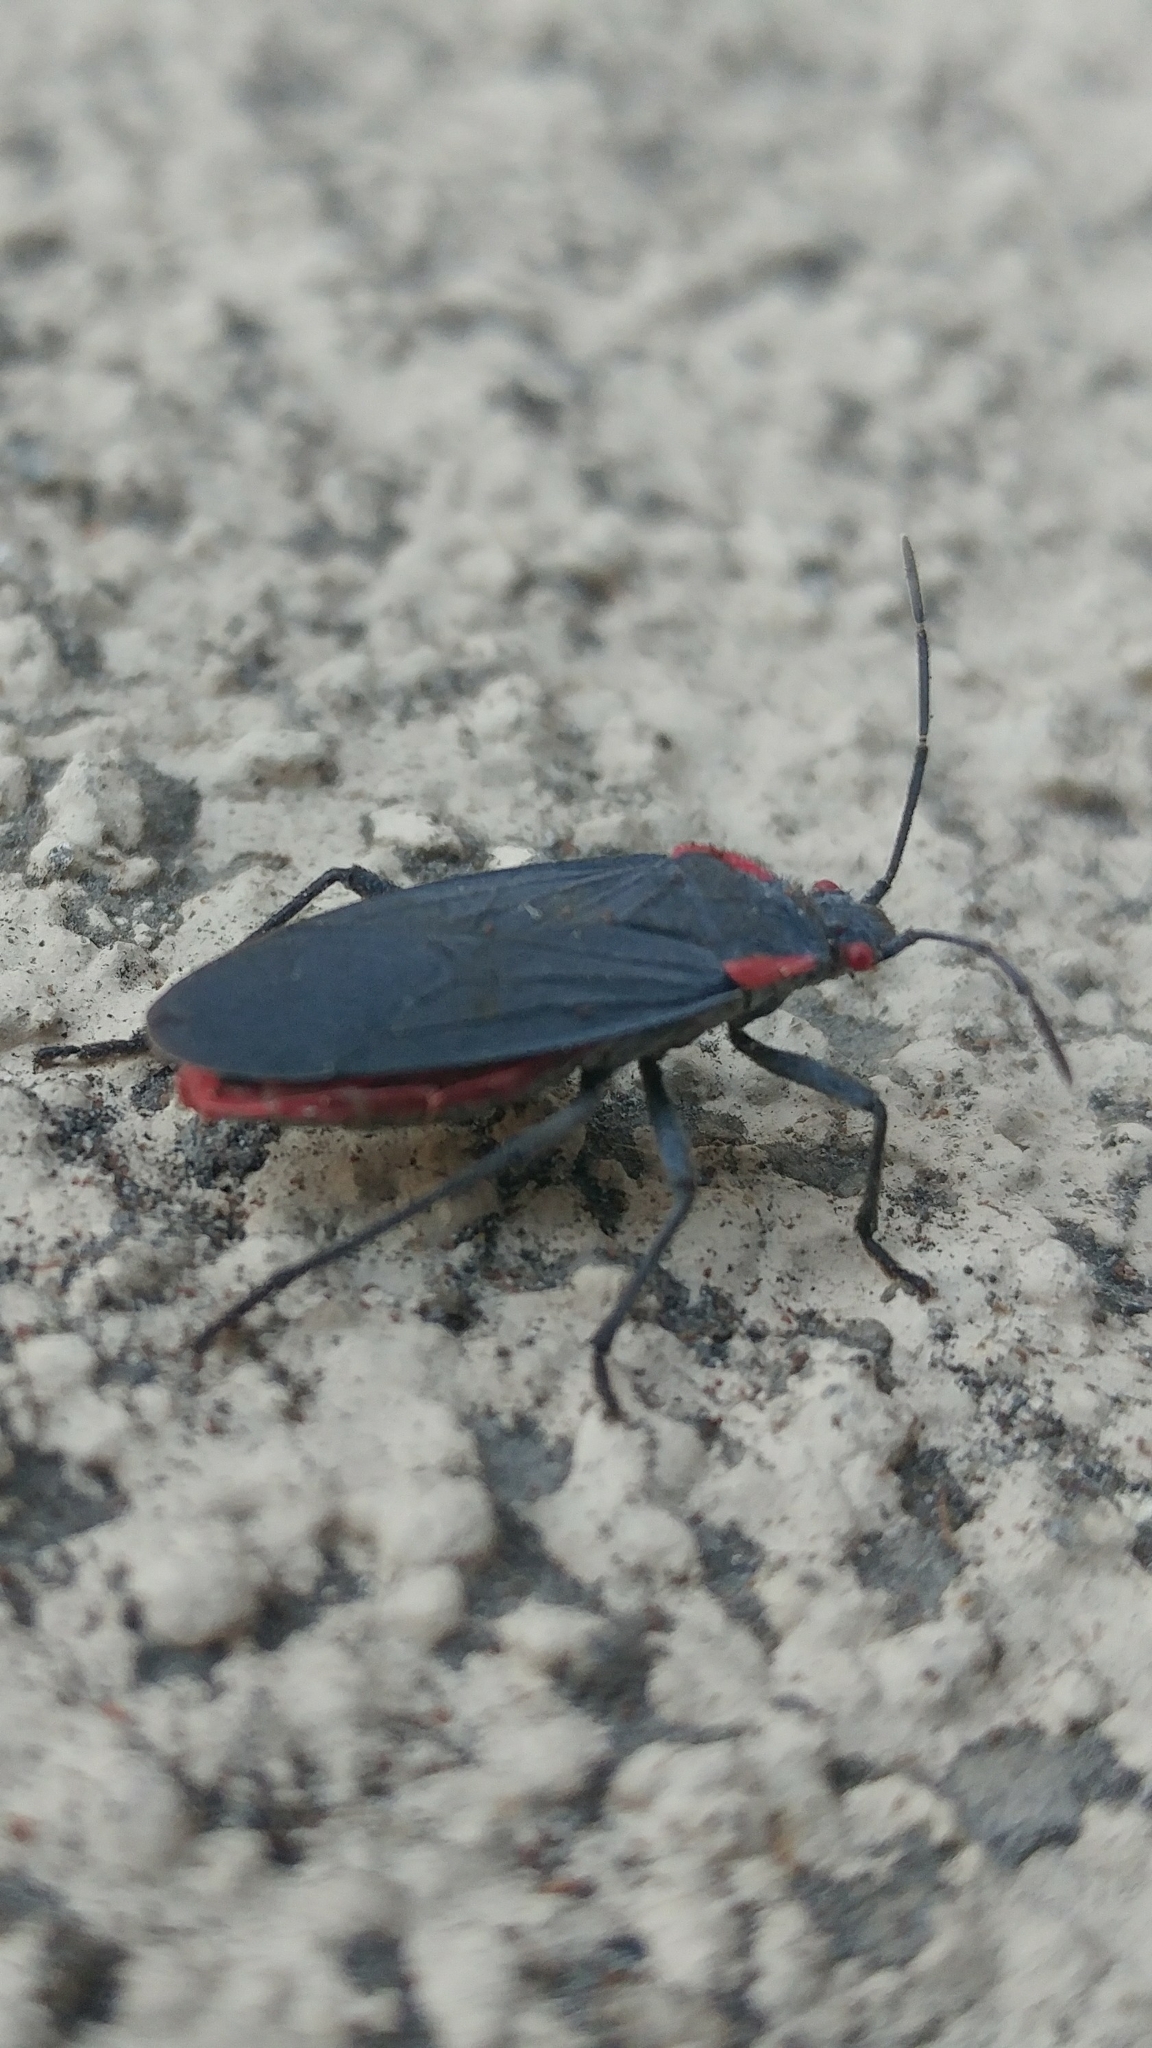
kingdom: Animalia
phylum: Arthropoda
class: Insecta
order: Hemiptera
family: Rhopalidae
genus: Jadera
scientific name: Jadera haematoloma
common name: Red-shouldered bug
